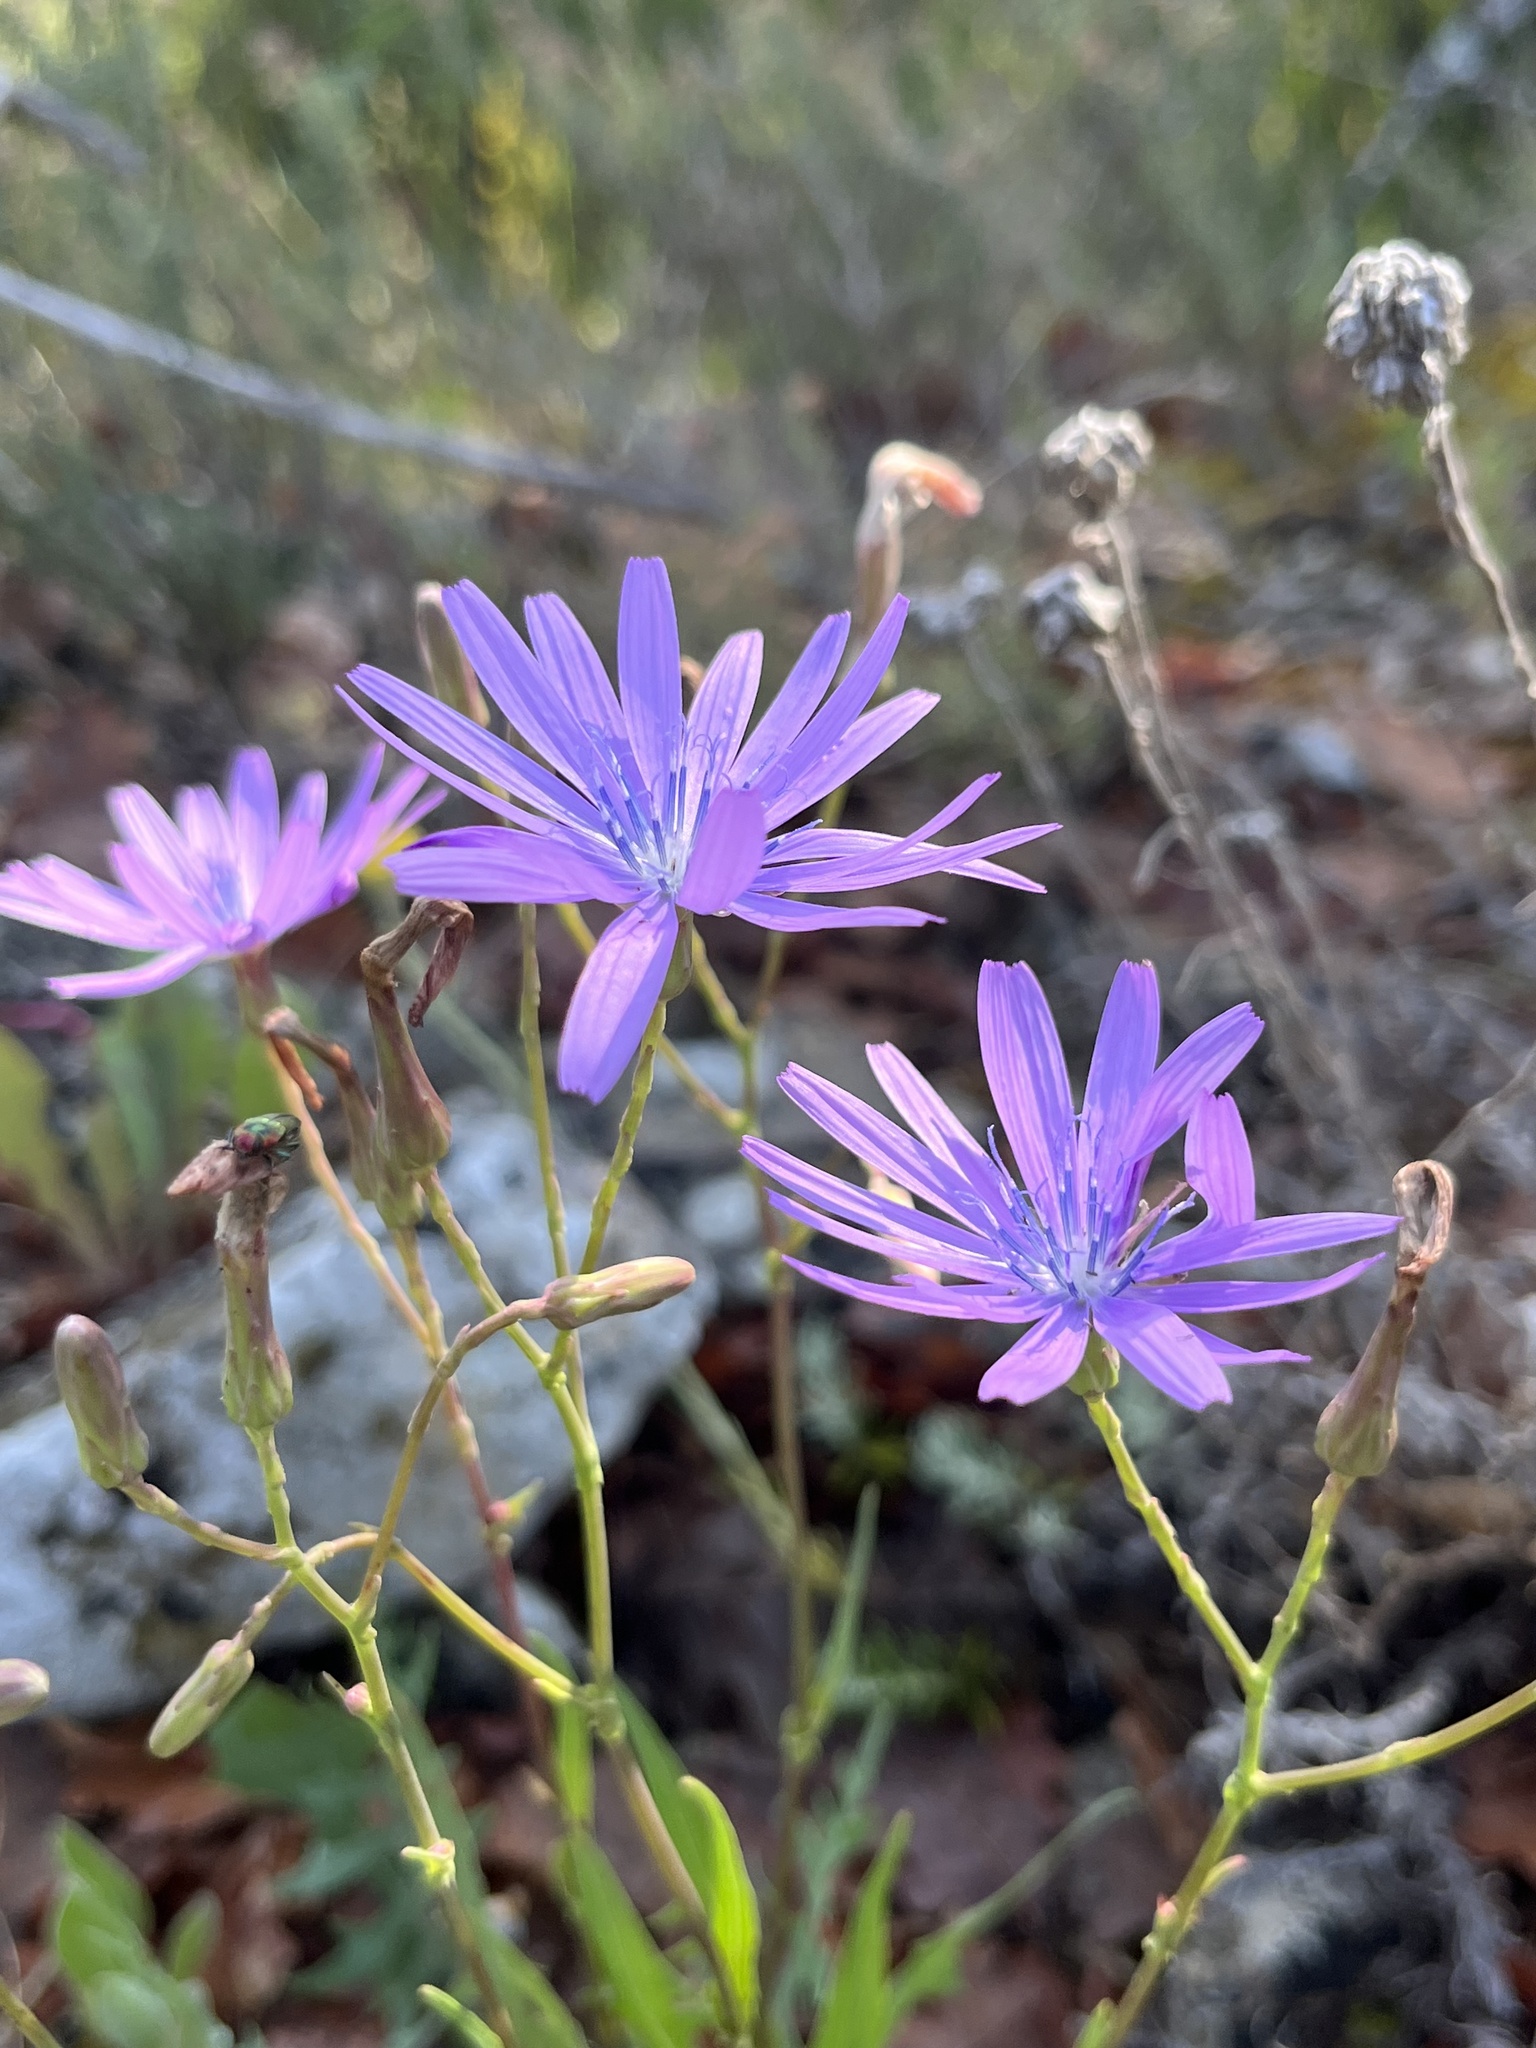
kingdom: Plantae
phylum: Tracheophyta
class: Magnoliopsida
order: Asterales
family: Asteraceae
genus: Lactuca
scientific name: Lactuca perennis
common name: Mountain lettuce
